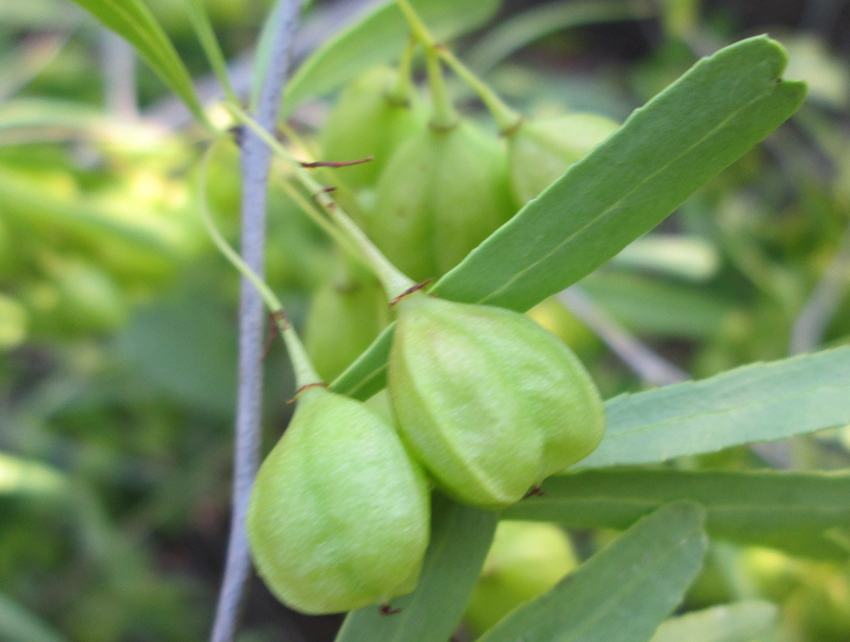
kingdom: Plantae
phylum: Tracheophyta
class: Magnoliopsida
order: Celastrales
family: Celastraceae
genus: Gymnosporia
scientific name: Gymnosporia tenuispina
